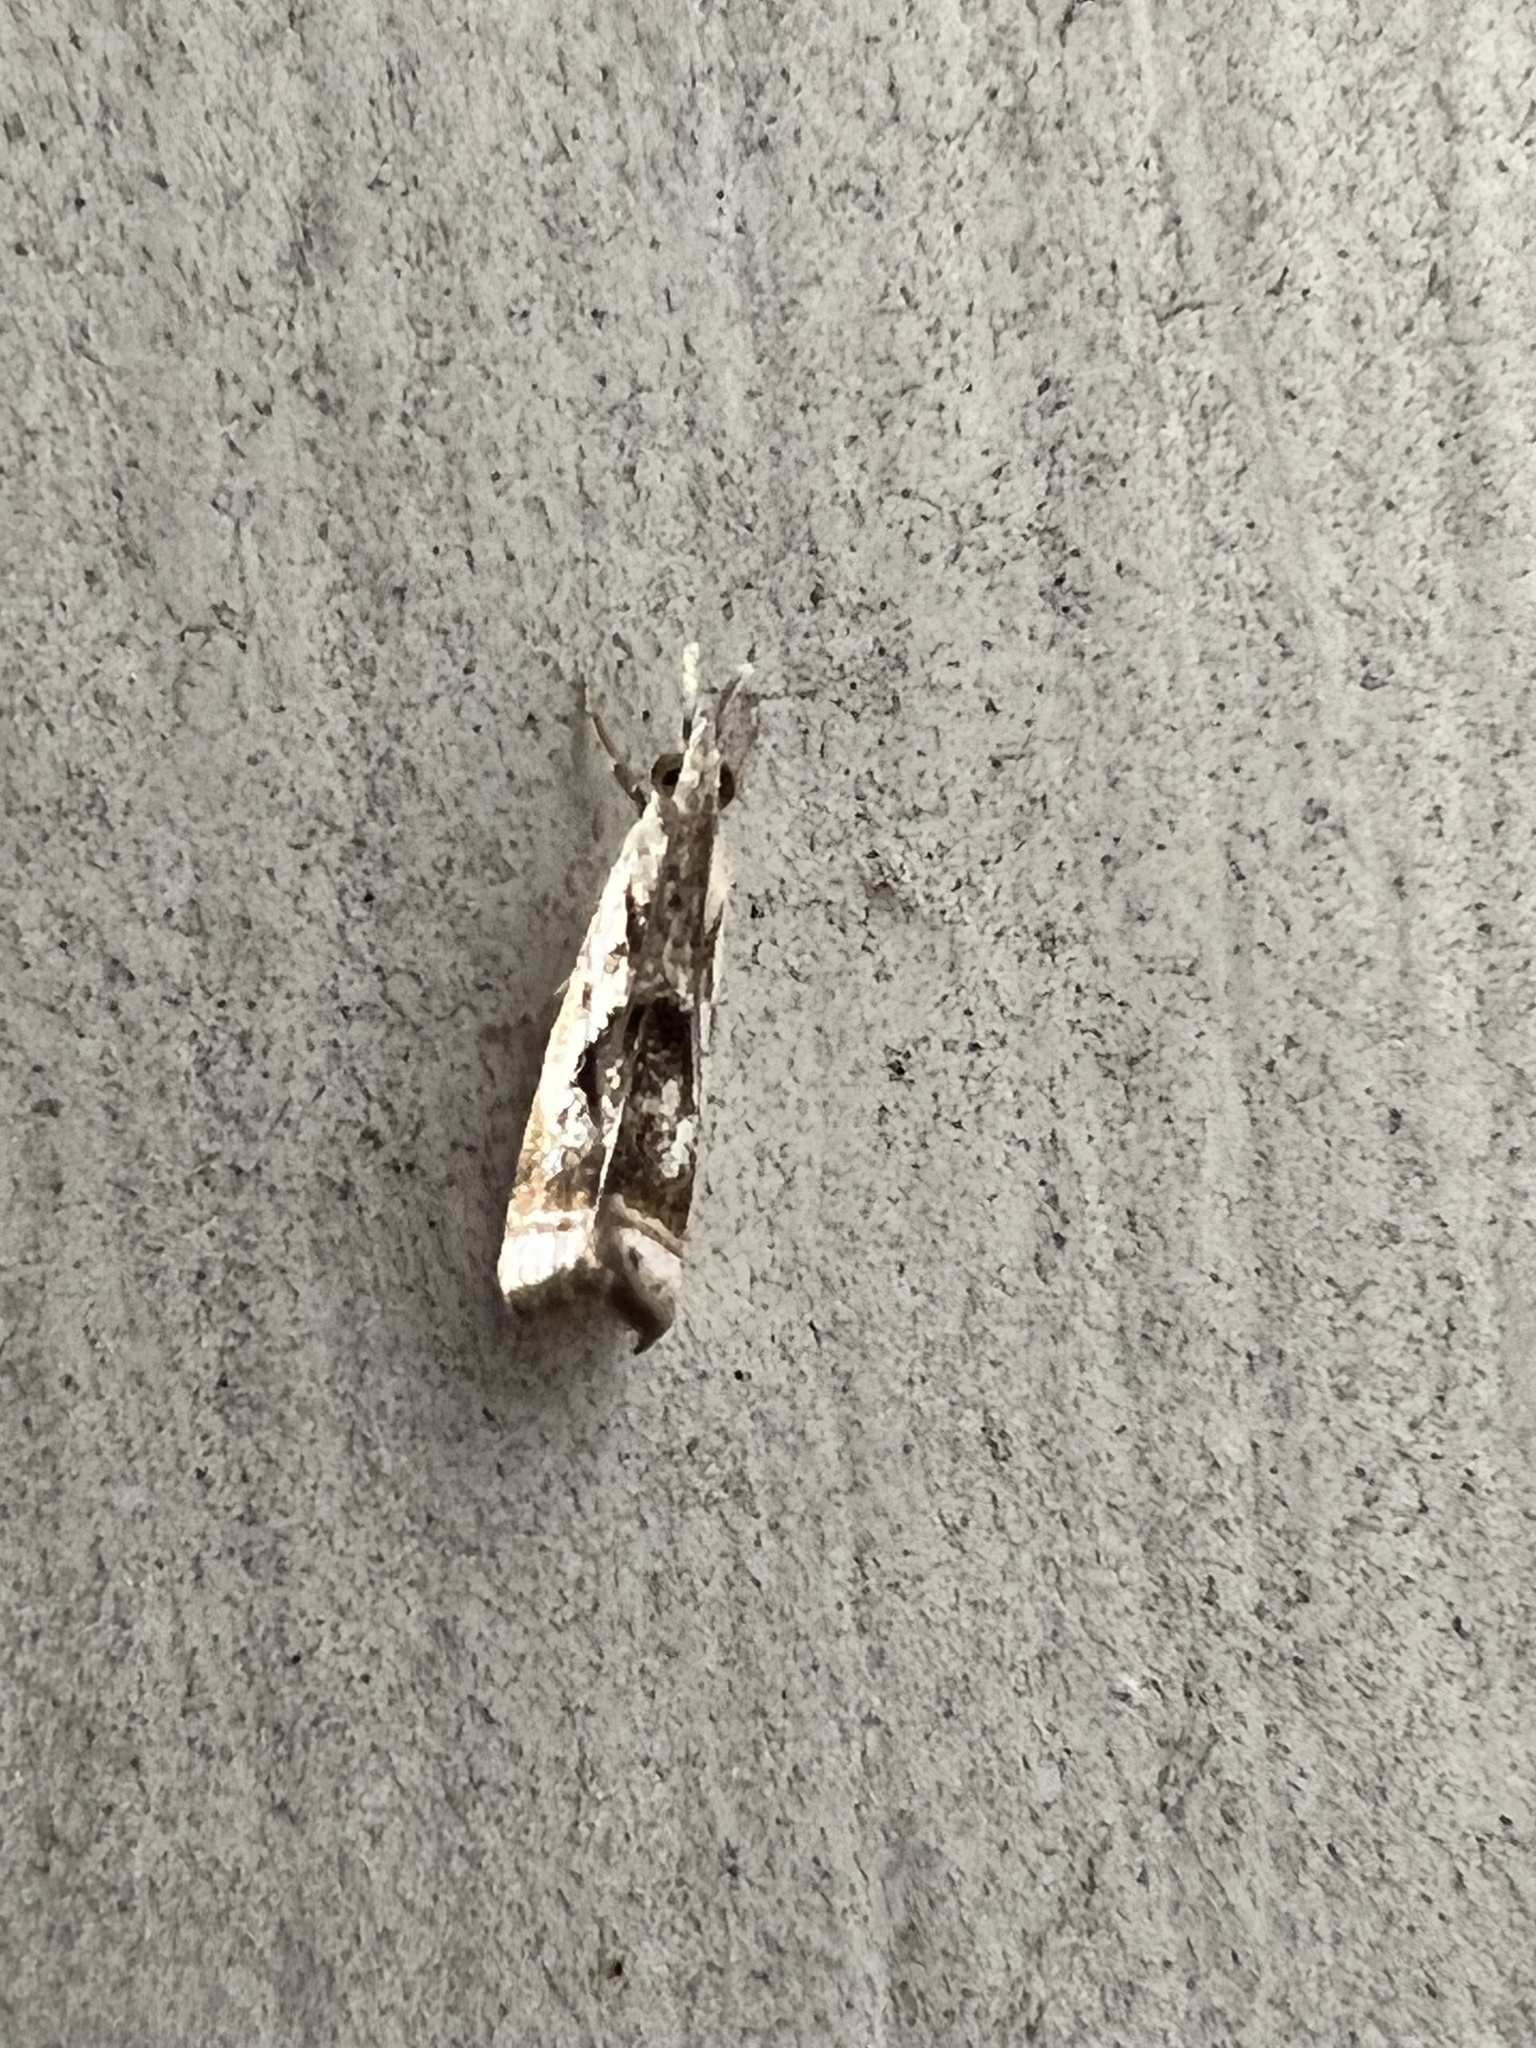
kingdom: Animalia
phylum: Arthropoda
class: Insecta
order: Lepidoptera
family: Crambidae
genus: Microcrambus
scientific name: Microcrambus elegans
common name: Elegant grass-veneer
